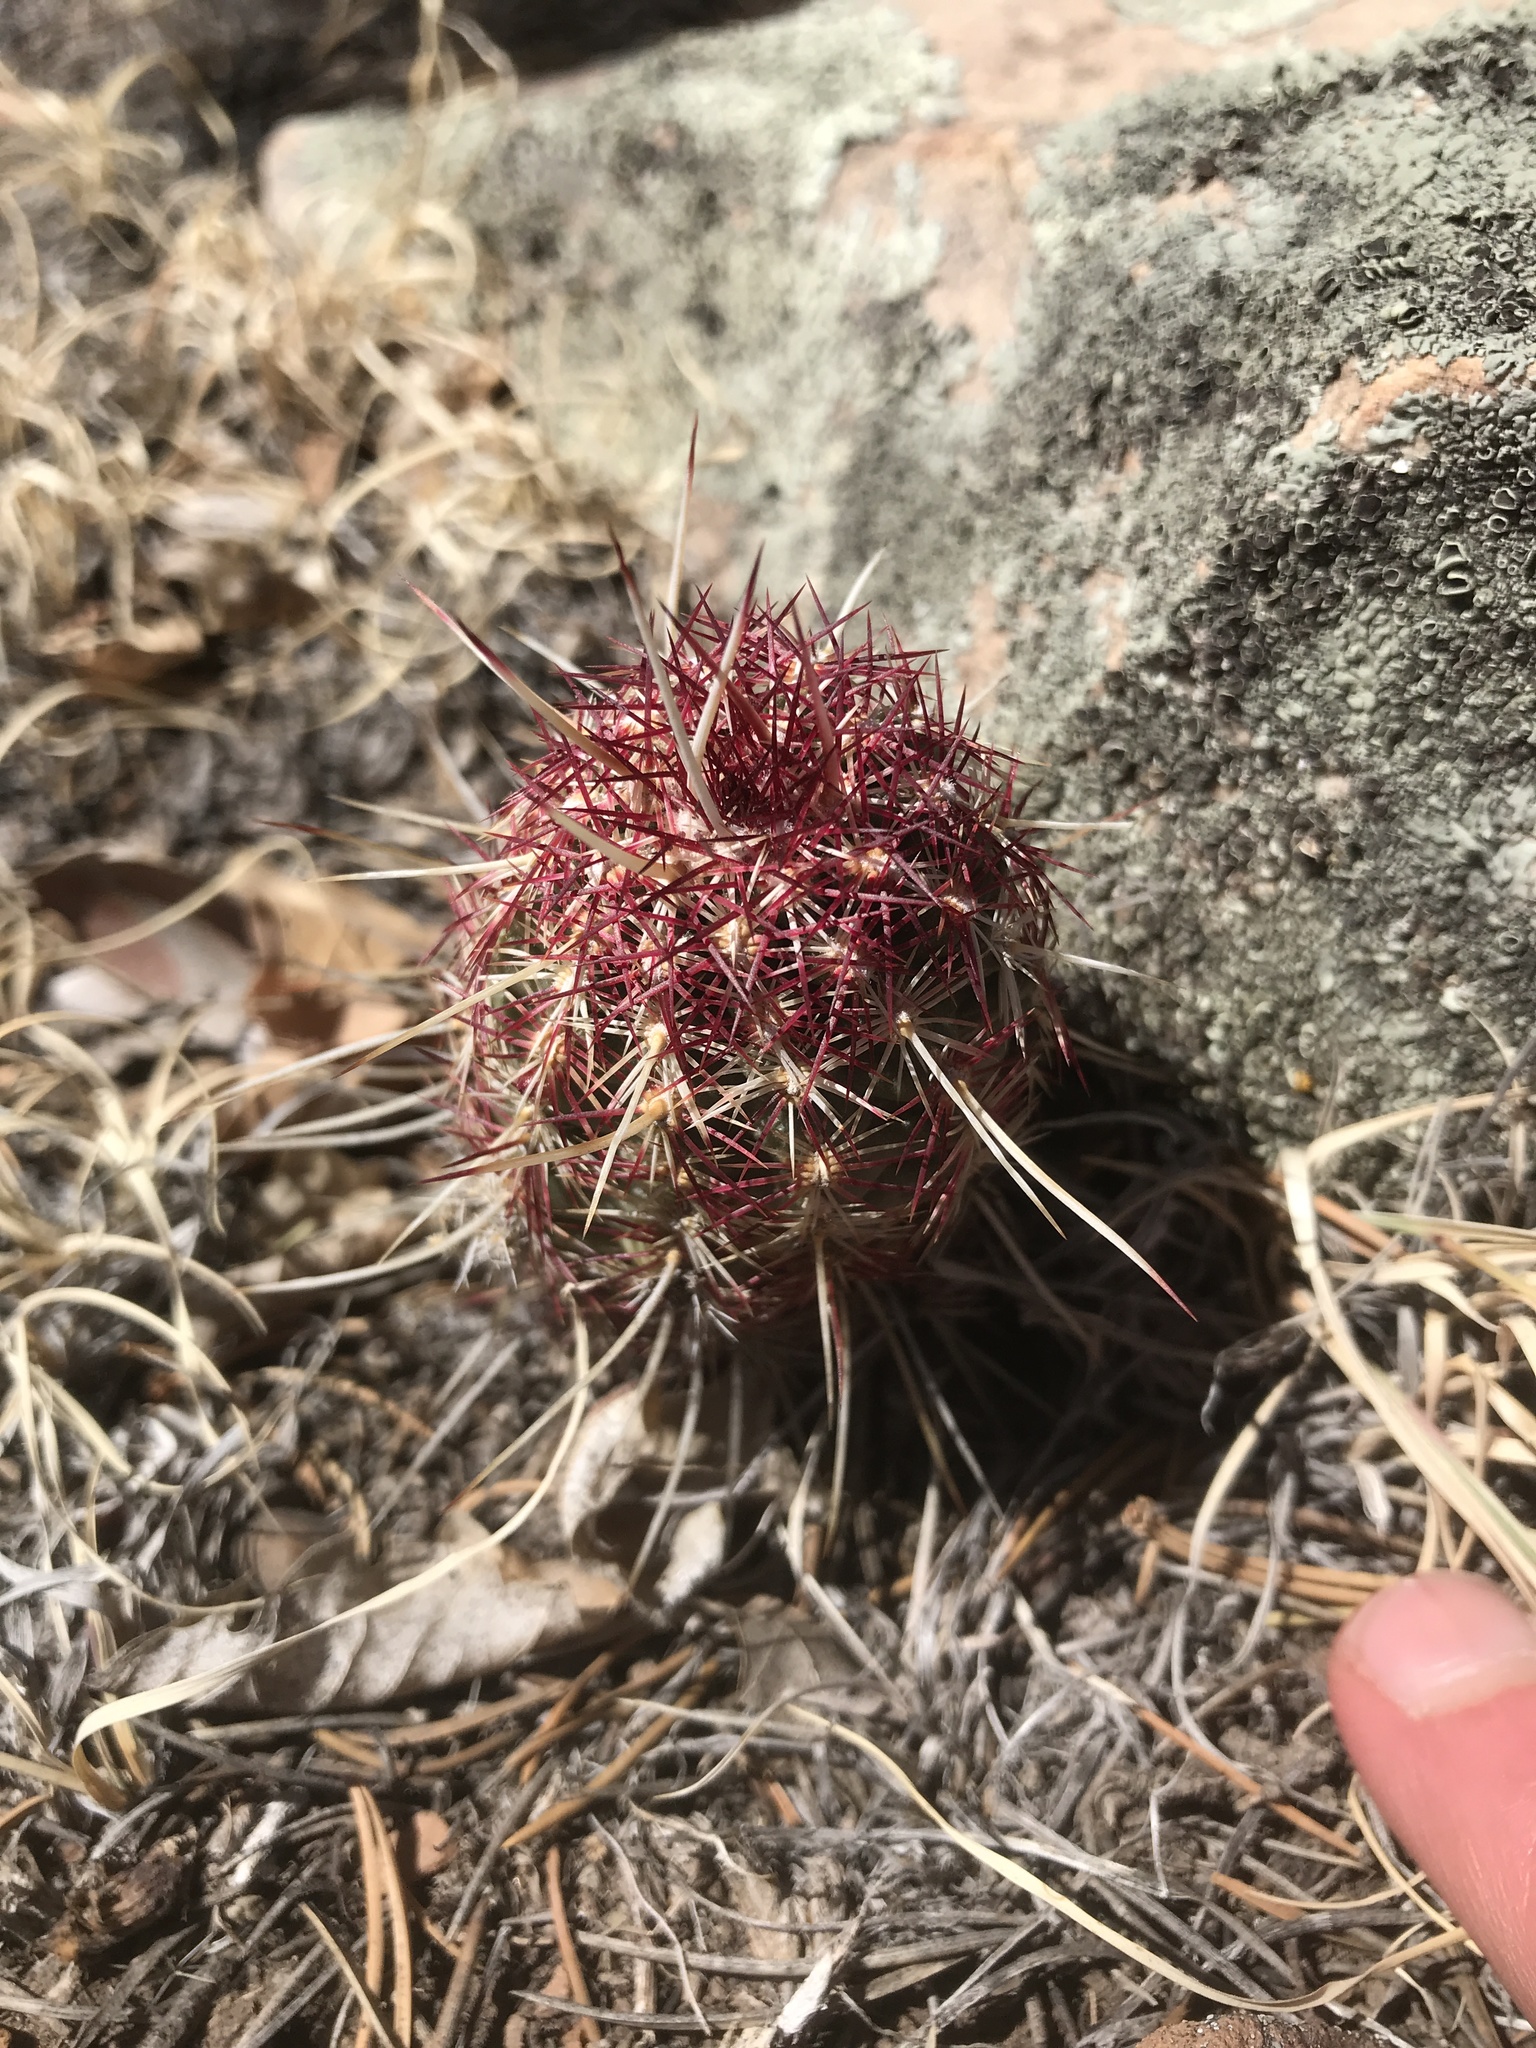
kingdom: Plantae
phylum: Tracheophyta
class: Magnoliopsida
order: Caryophyllales
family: Cactaceae
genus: Echinocereus
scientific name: Echinocereus viridiflorus
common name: Nylon hedgehog cactus
